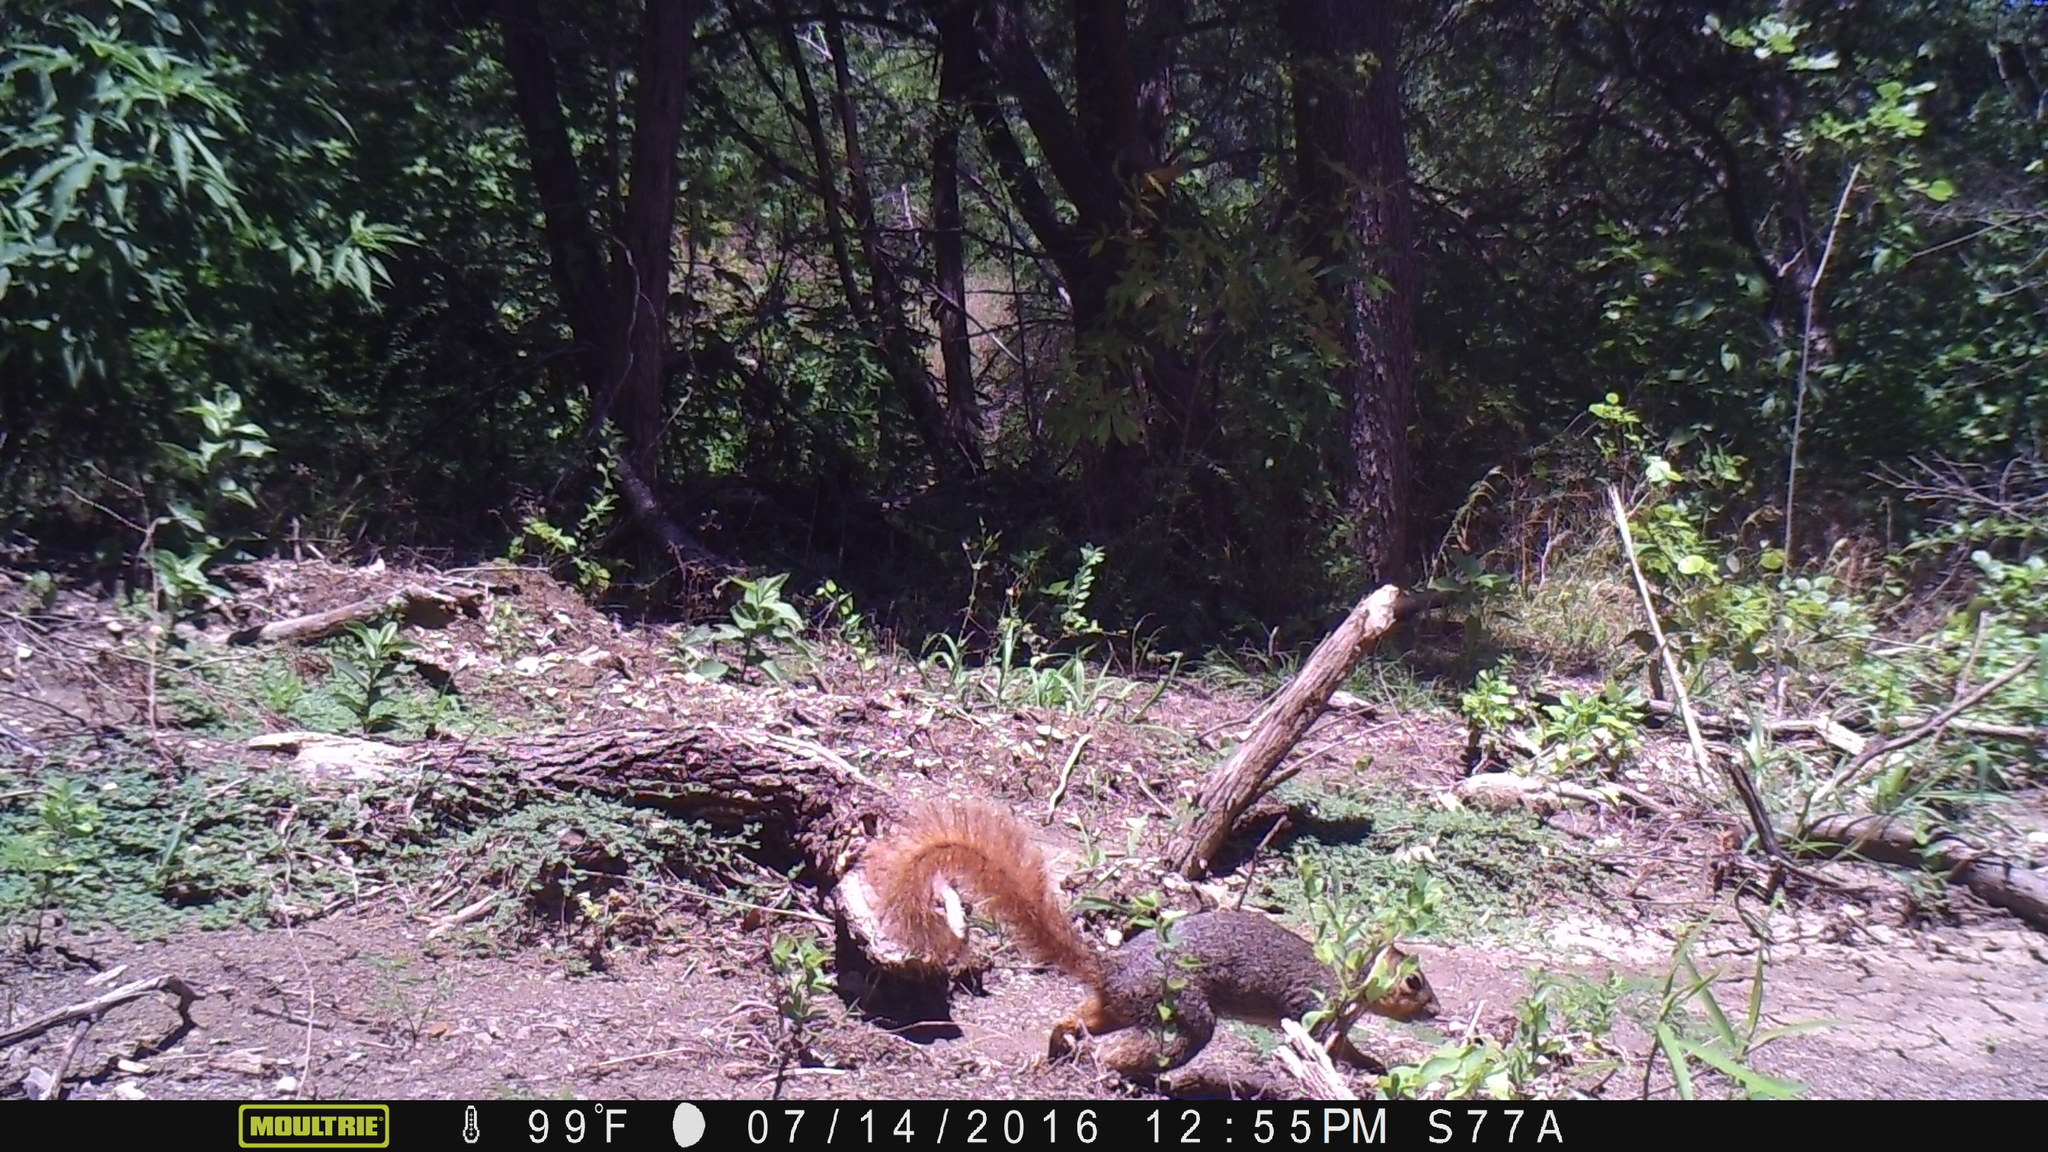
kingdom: Animalia
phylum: Chordata
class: Mammalia
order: Rodentia
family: Sciuridae
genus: Sciurus
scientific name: Sciurus niger
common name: Fox squirrel
